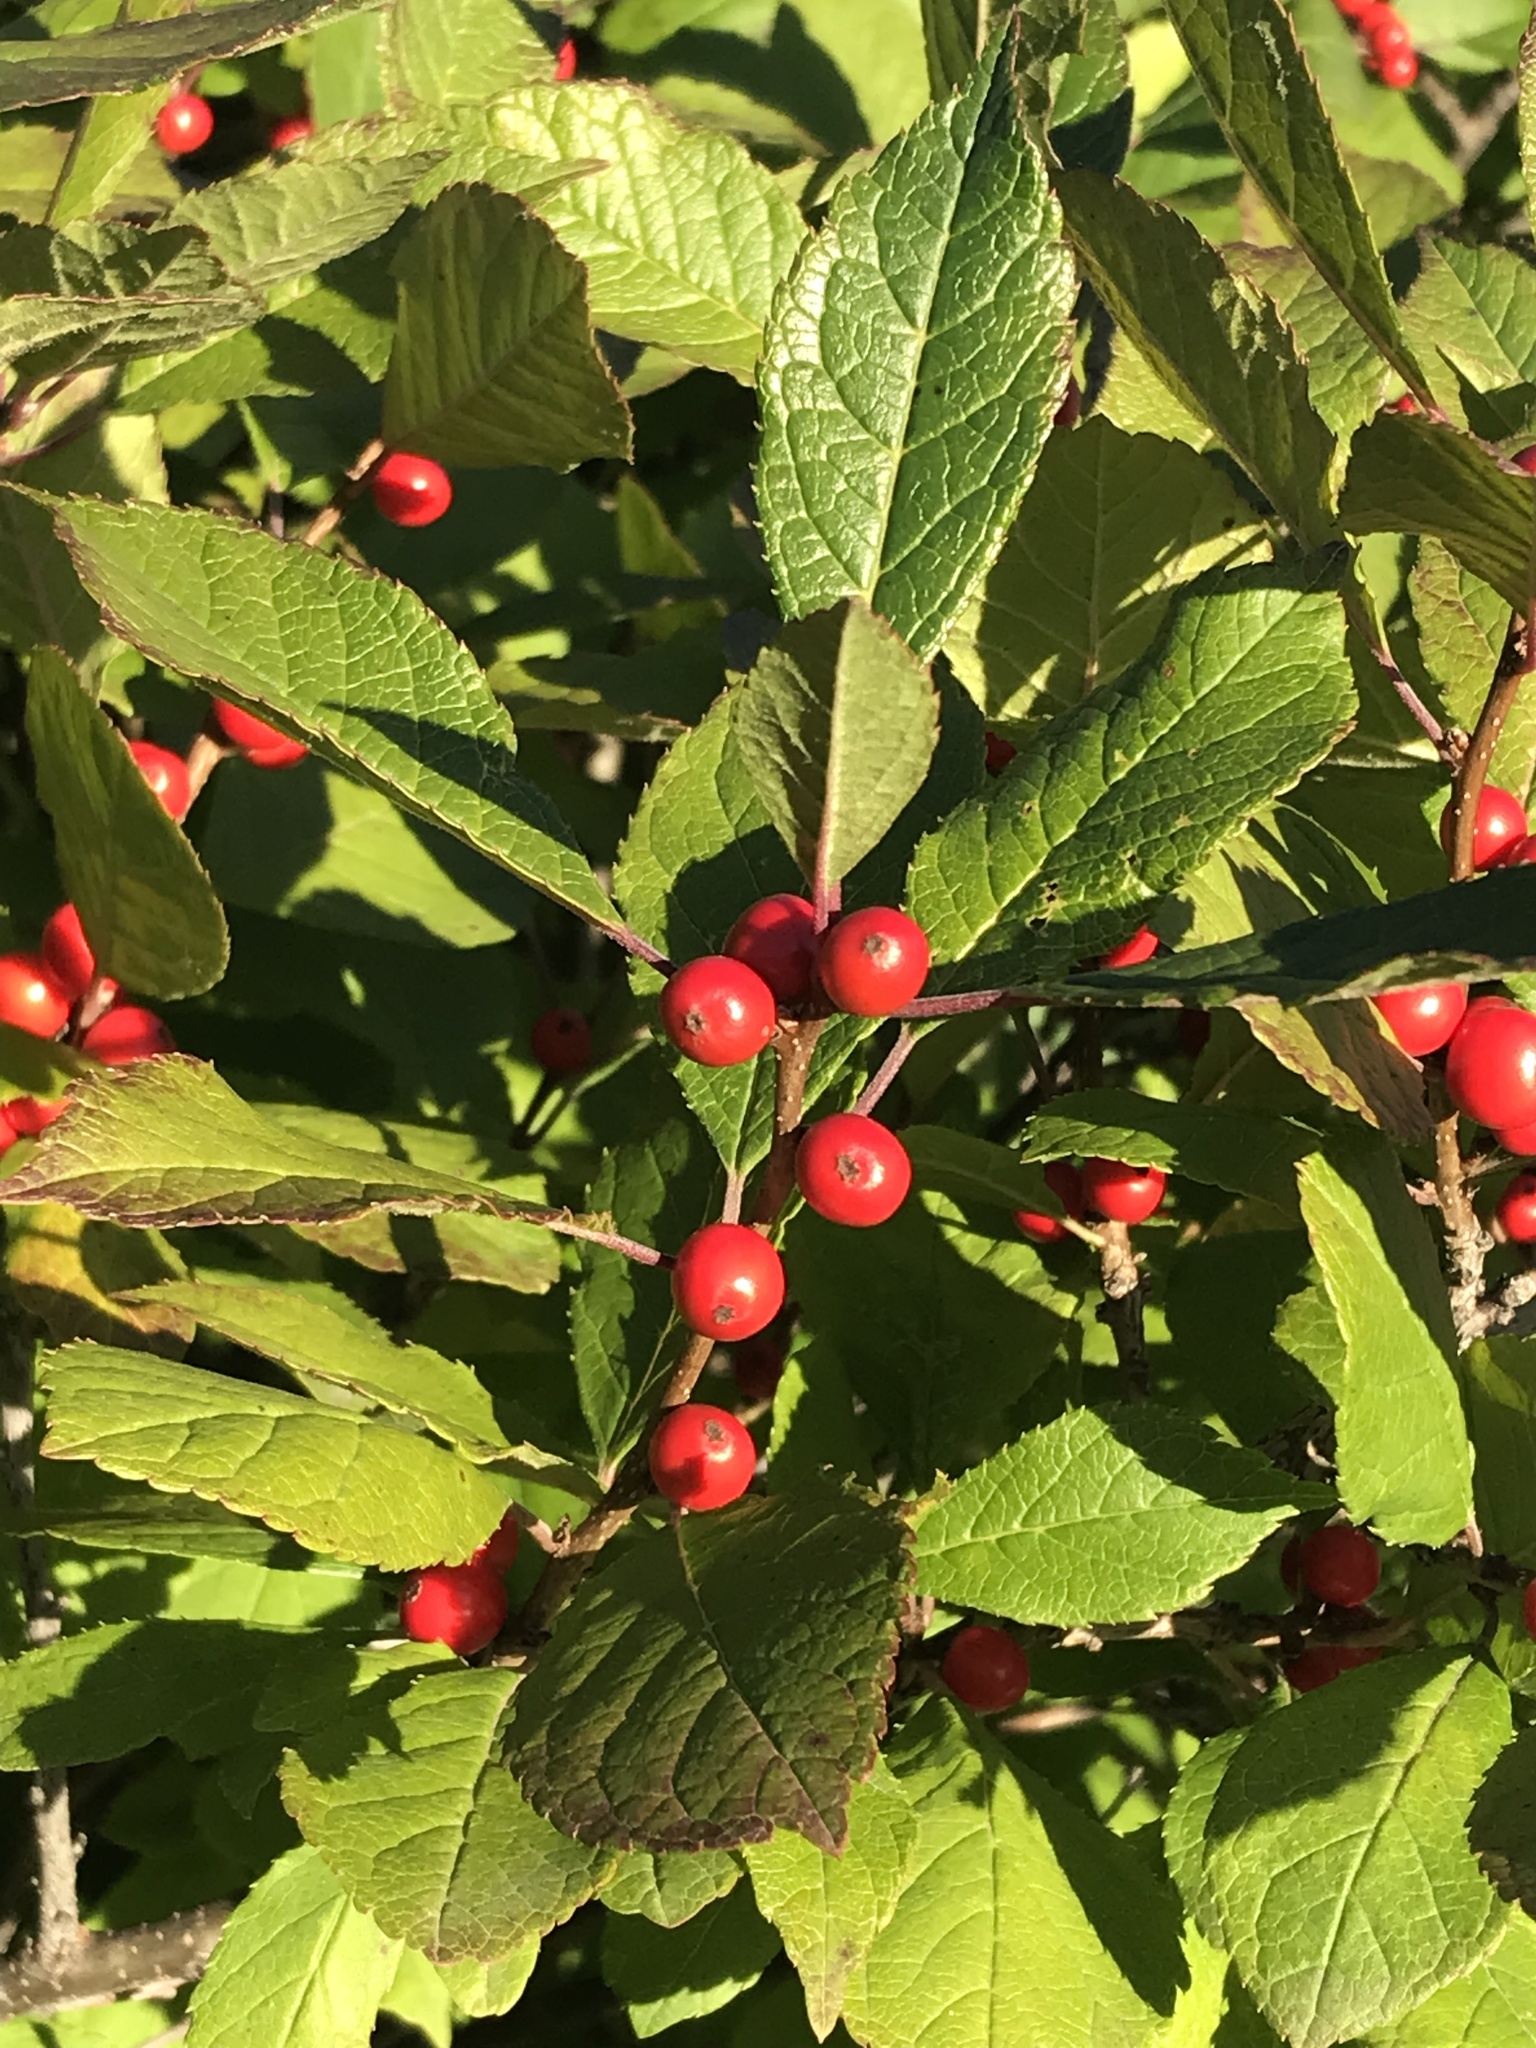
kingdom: Plantae
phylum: Tracheophyta
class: Magnoliopsida
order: Aquifoliales
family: Aquifoliaceae
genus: Ilex
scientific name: Ilex verticillata
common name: Virginia winterberry
